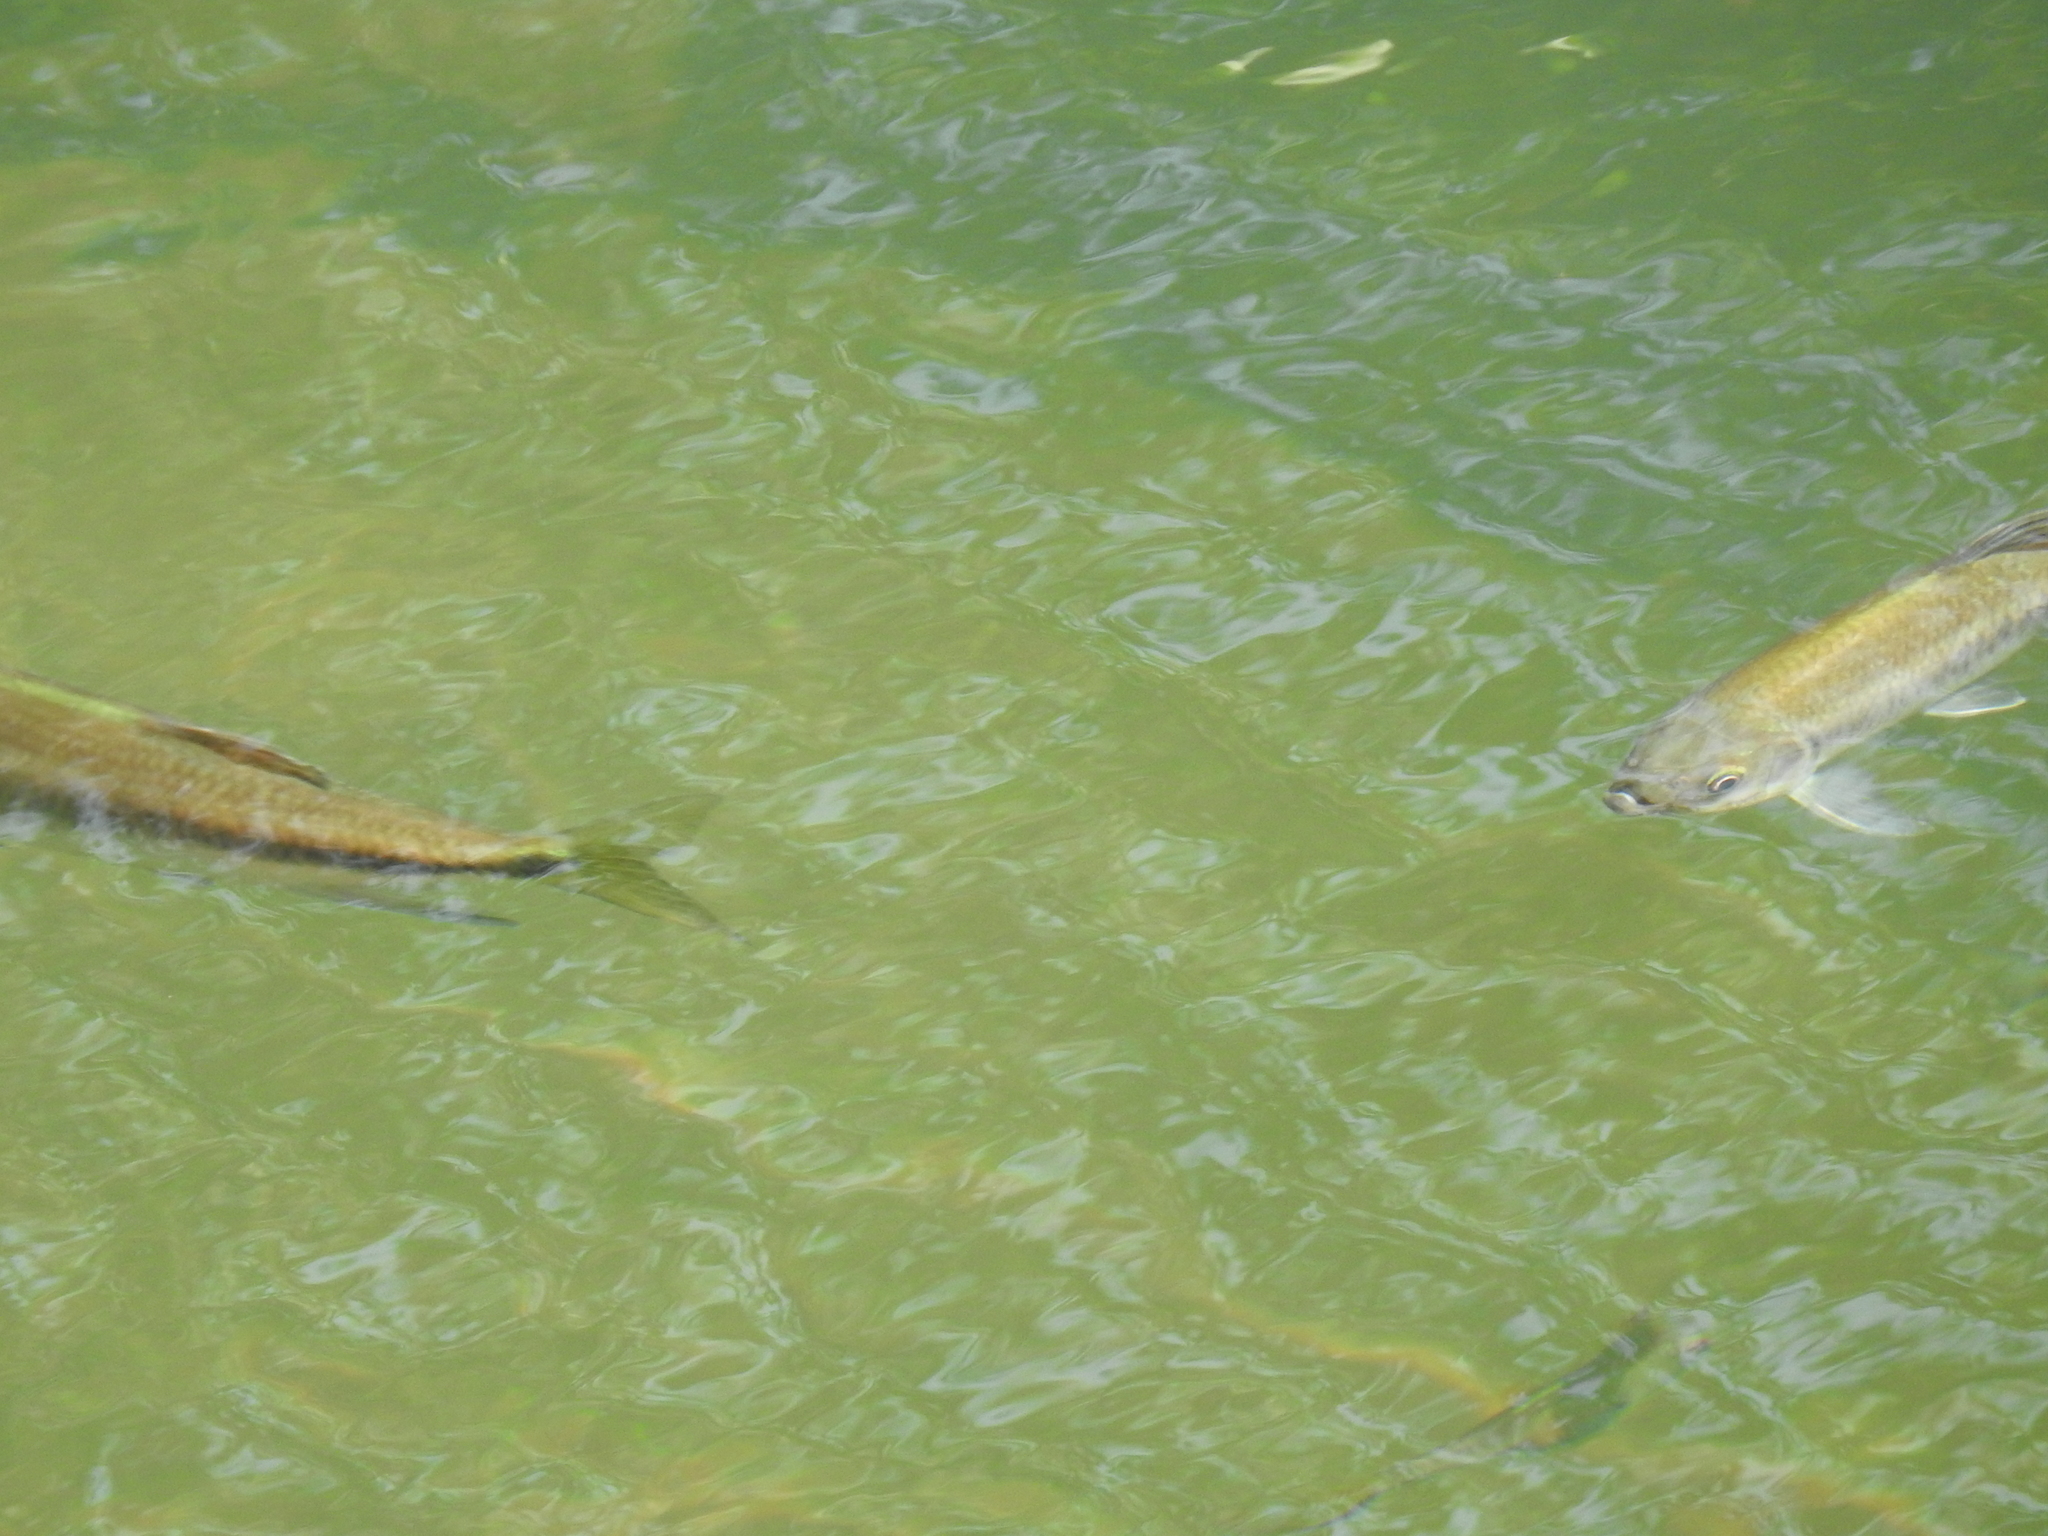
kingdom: Animalia
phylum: Chordata
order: Cypriniformes
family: Cyprinidae
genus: Parazacco
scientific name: Parazacco spilurus
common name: Predaceous chub
